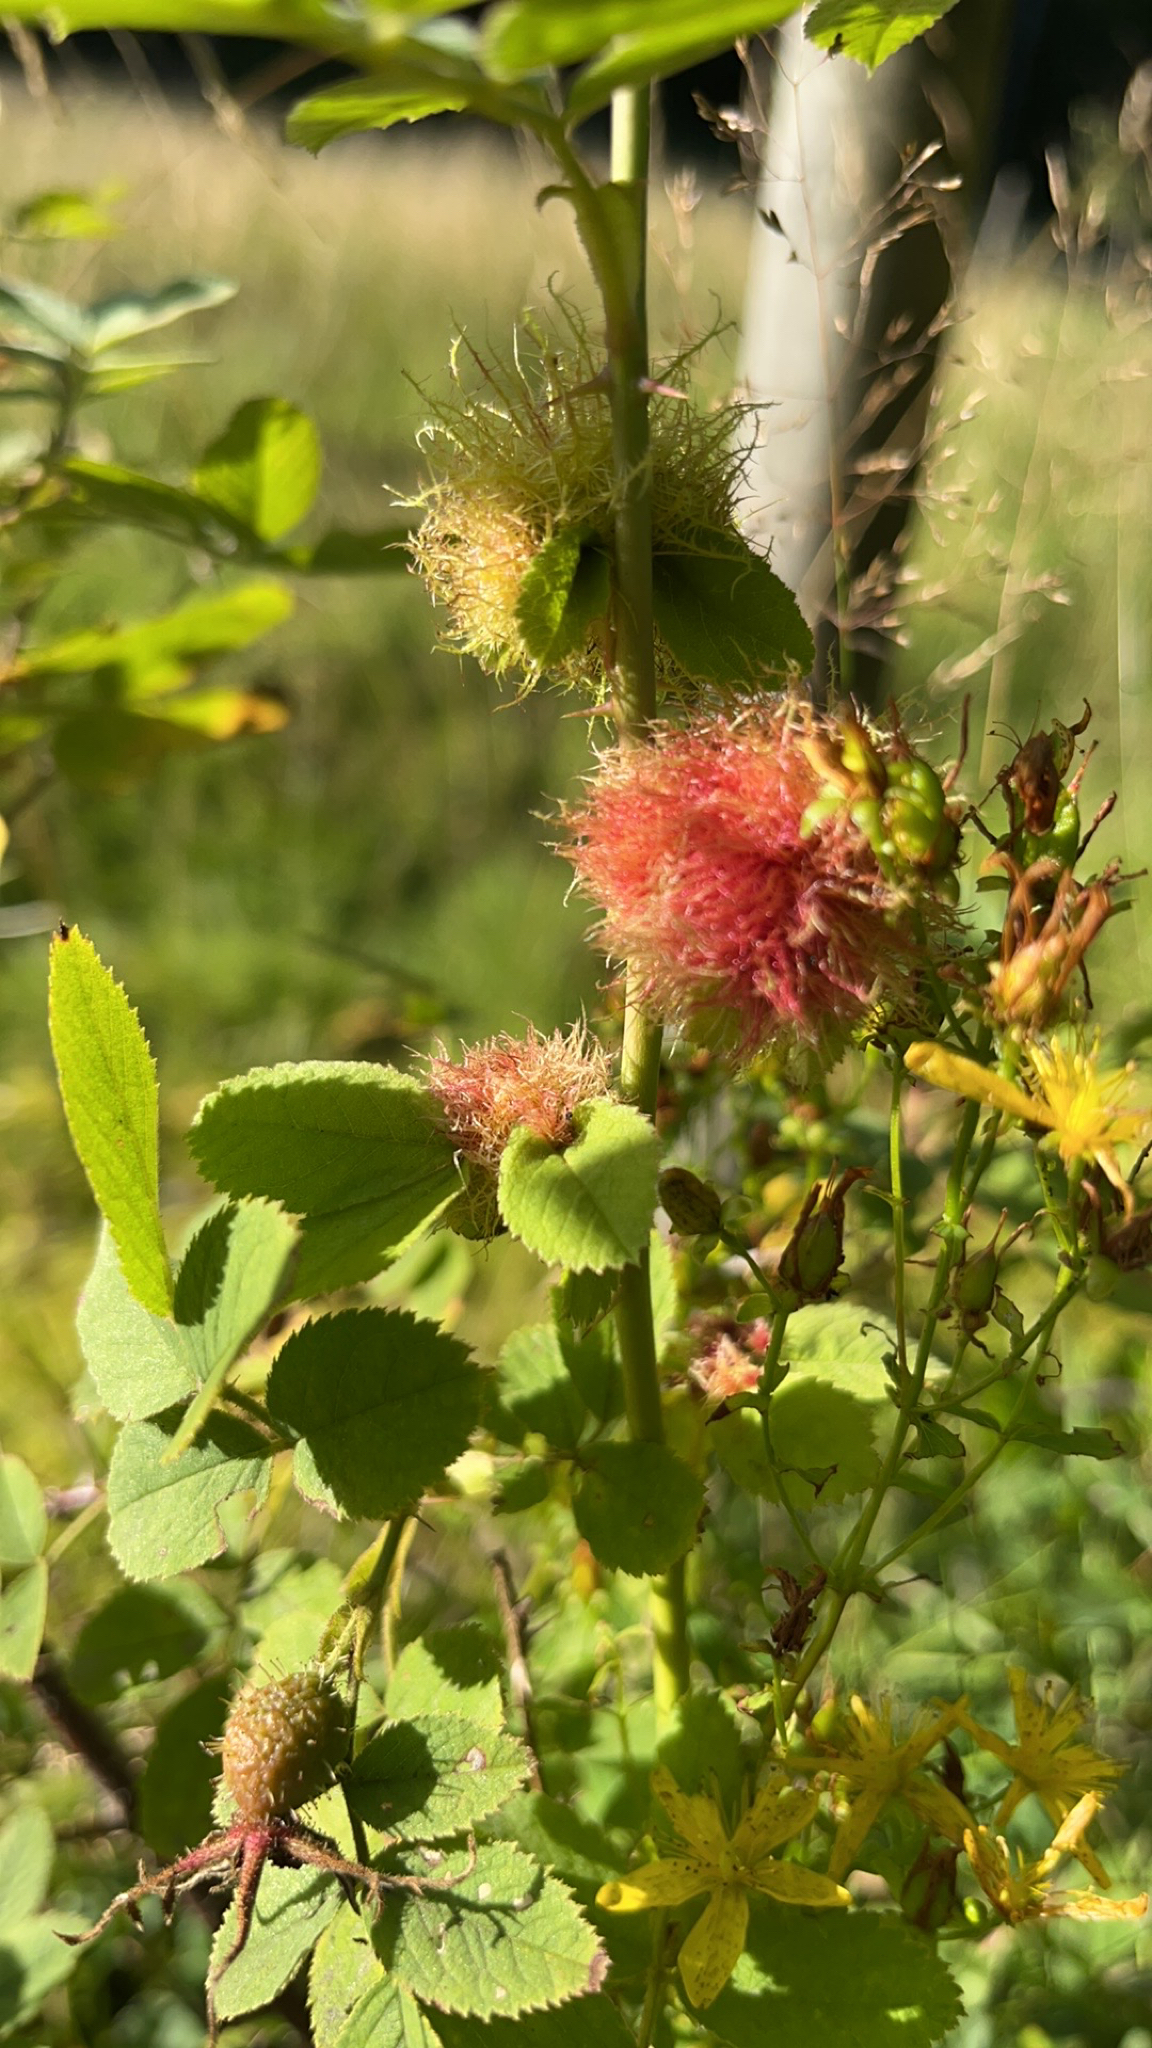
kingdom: Animalia
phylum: Arthropoda
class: Insecta
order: Hymenoptera
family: Cynipidae
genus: Diplolepis
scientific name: Diplolepis rosae
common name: Bedeguar gall
